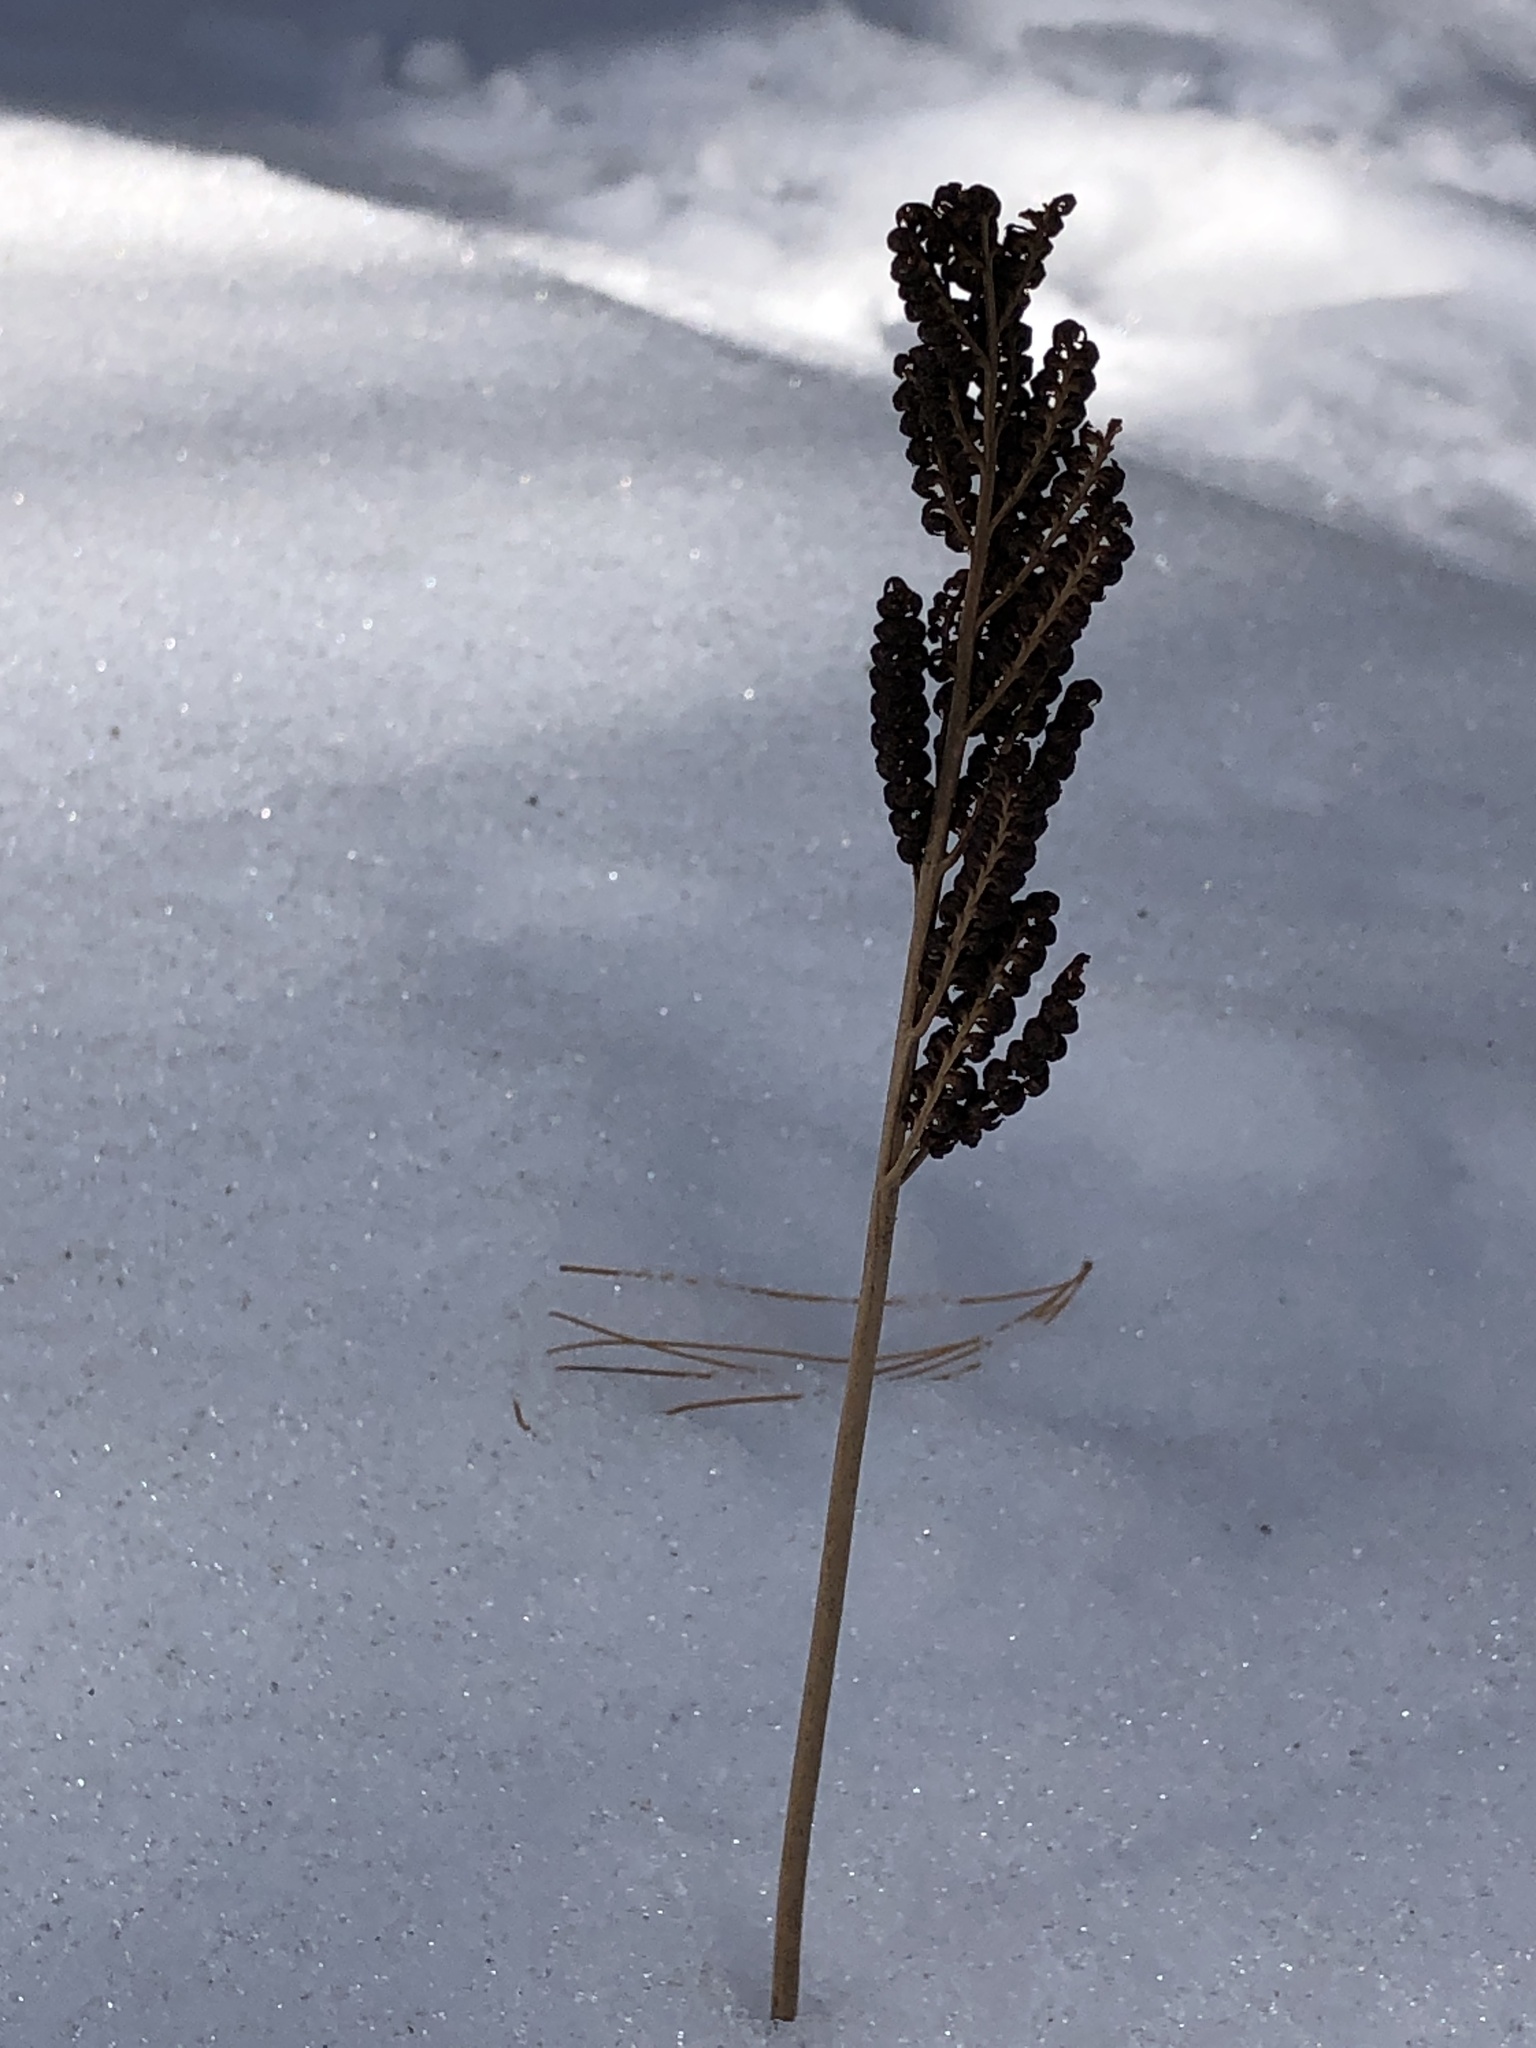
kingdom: Plantae
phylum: Tracheophyta
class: Polypodiopsida
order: Polypodiales
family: Onocleaceae
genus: Onoclea
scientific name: Onoclea sensibilis
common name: Sensitive fern
